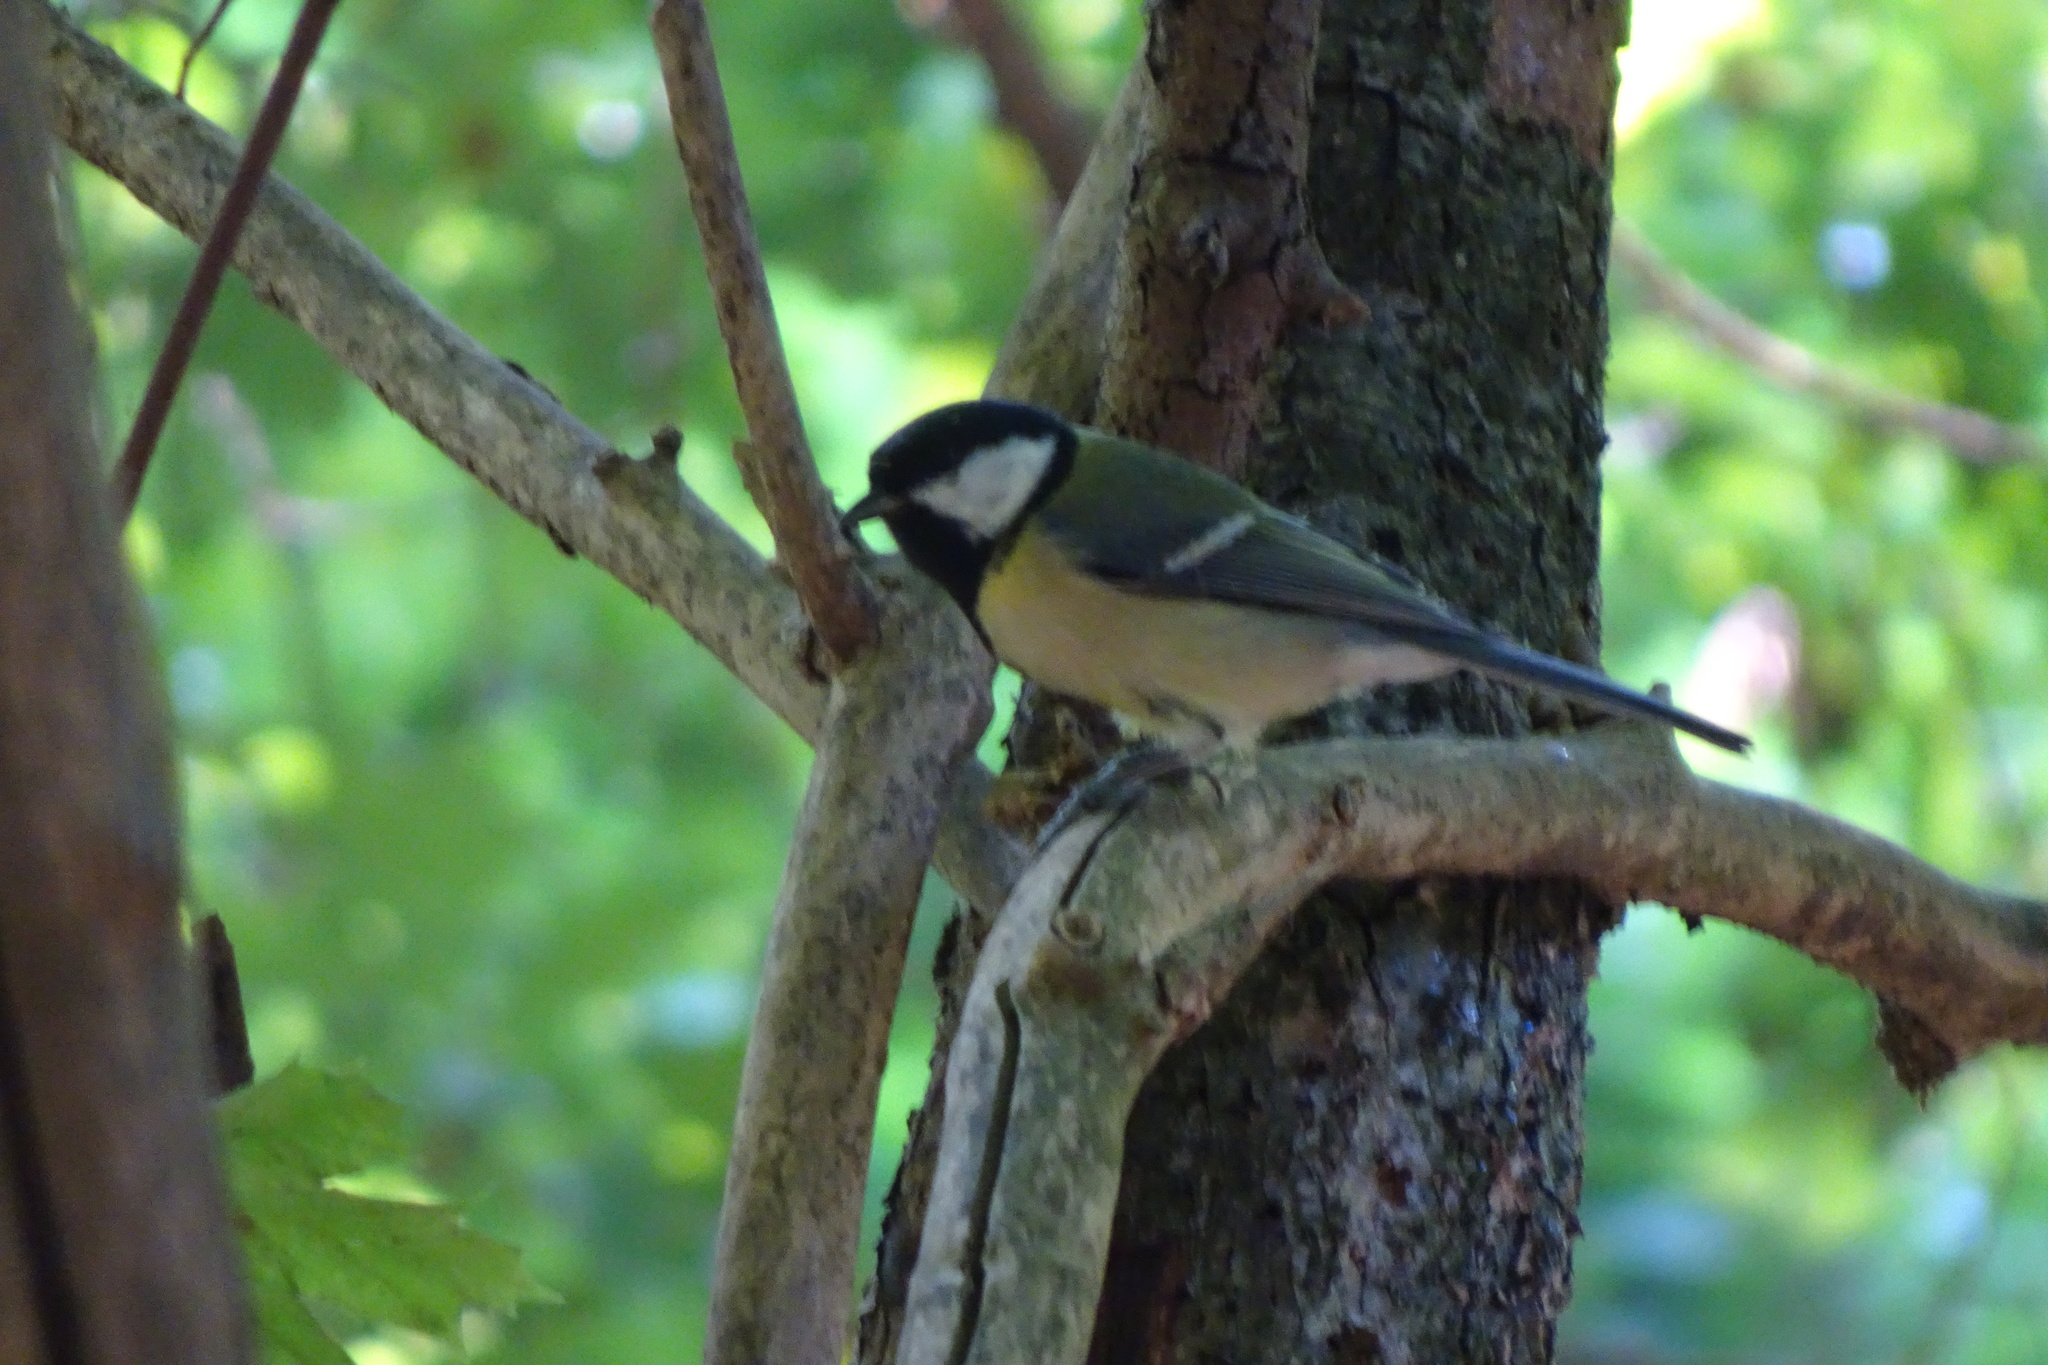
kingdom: Animalia
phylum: Chordata
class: Aves
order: Passeriformes
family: Paridae
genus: Parus
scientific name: Parus major
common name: Great tit
